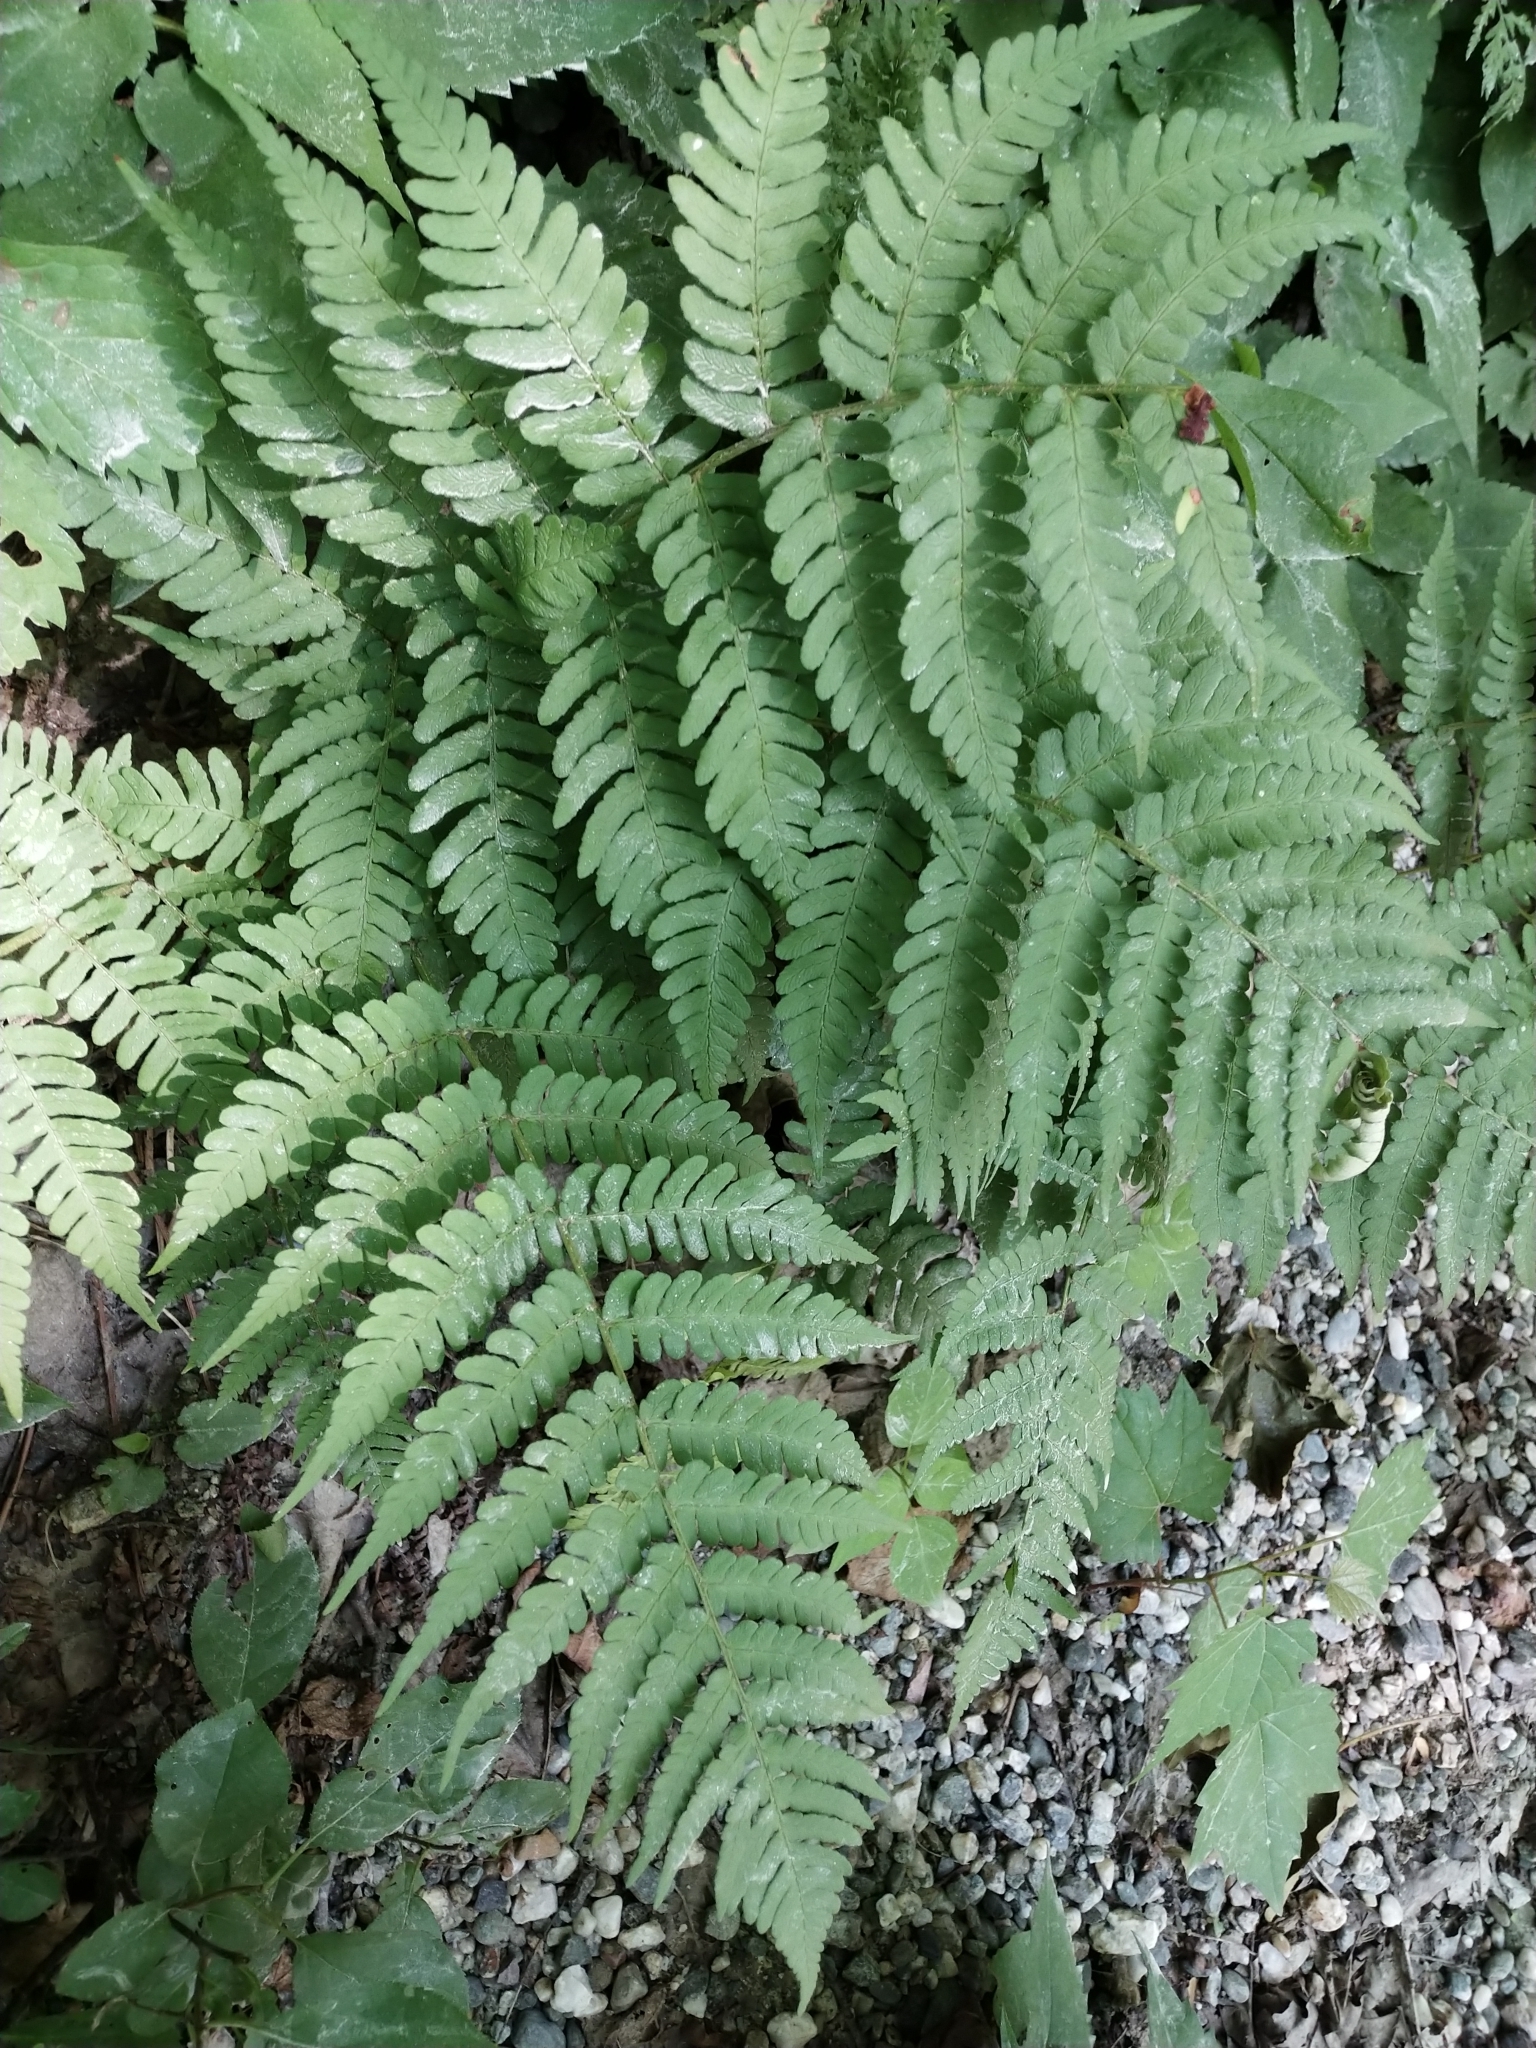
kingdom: Plantae
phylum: Tracheophyta
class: Polypodiopsida
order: Polypodiales
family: Dryopteridaceae
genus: Dryopteris
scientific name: Dryopteris marginalis
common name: Marginal wood fern
